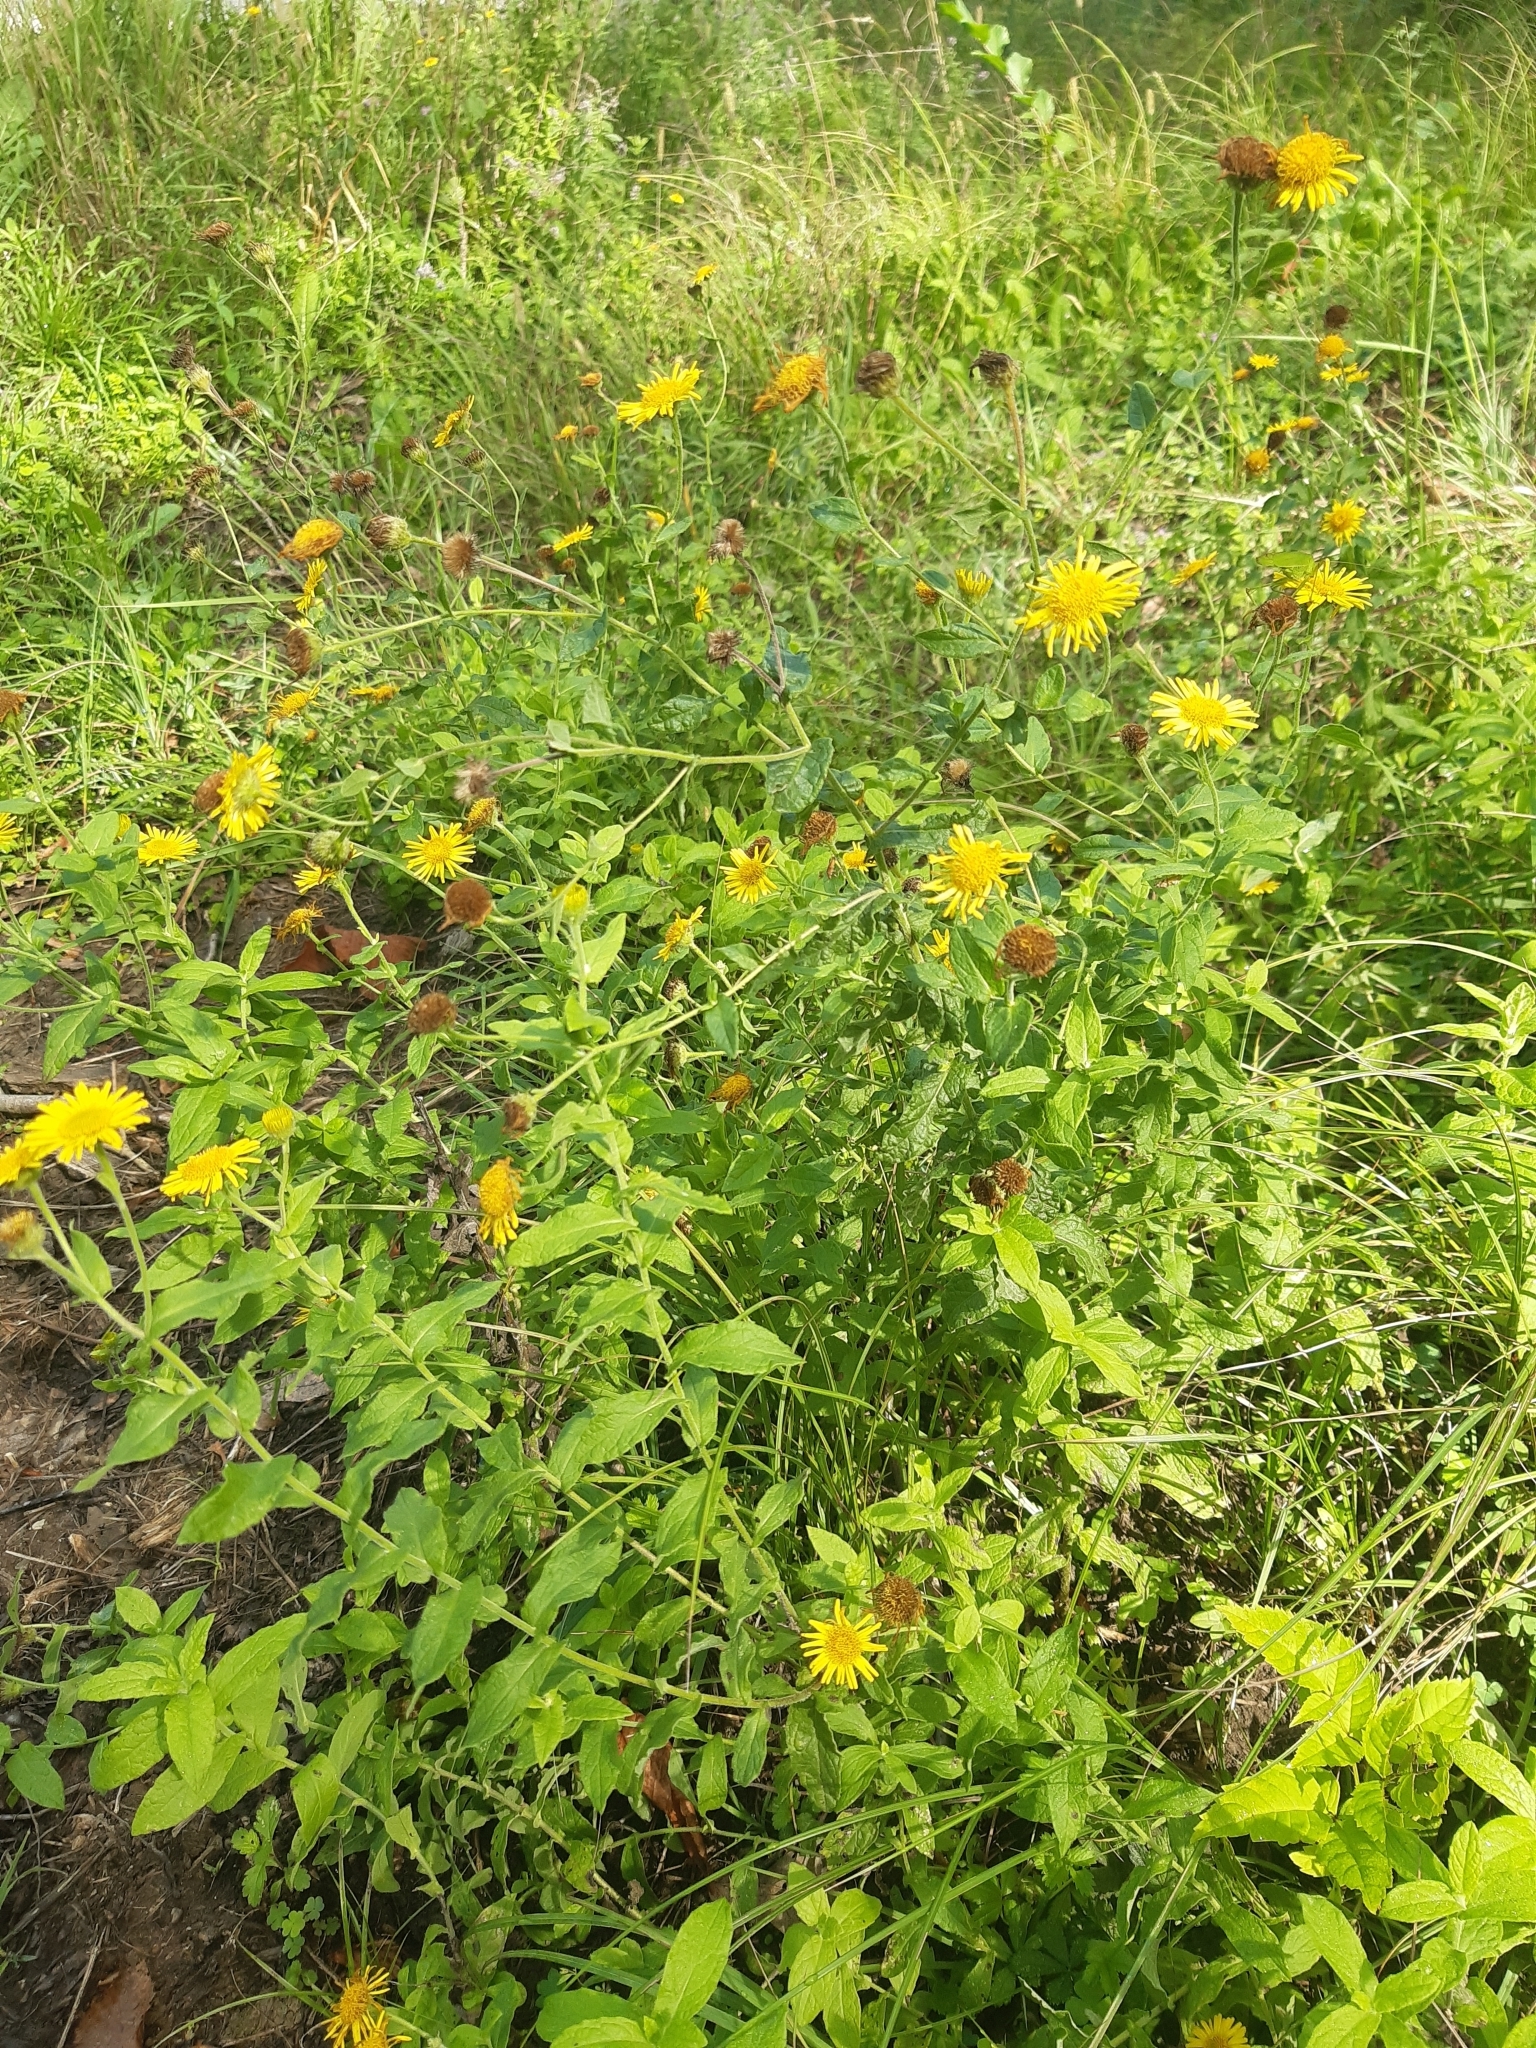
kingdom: Plantae
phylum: Tracheophyta
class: Magnoliopsida
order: Asterales
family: Asteraceae
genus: Pulicaria
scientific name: Pulicaria dysenterica
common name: Common fleabane
